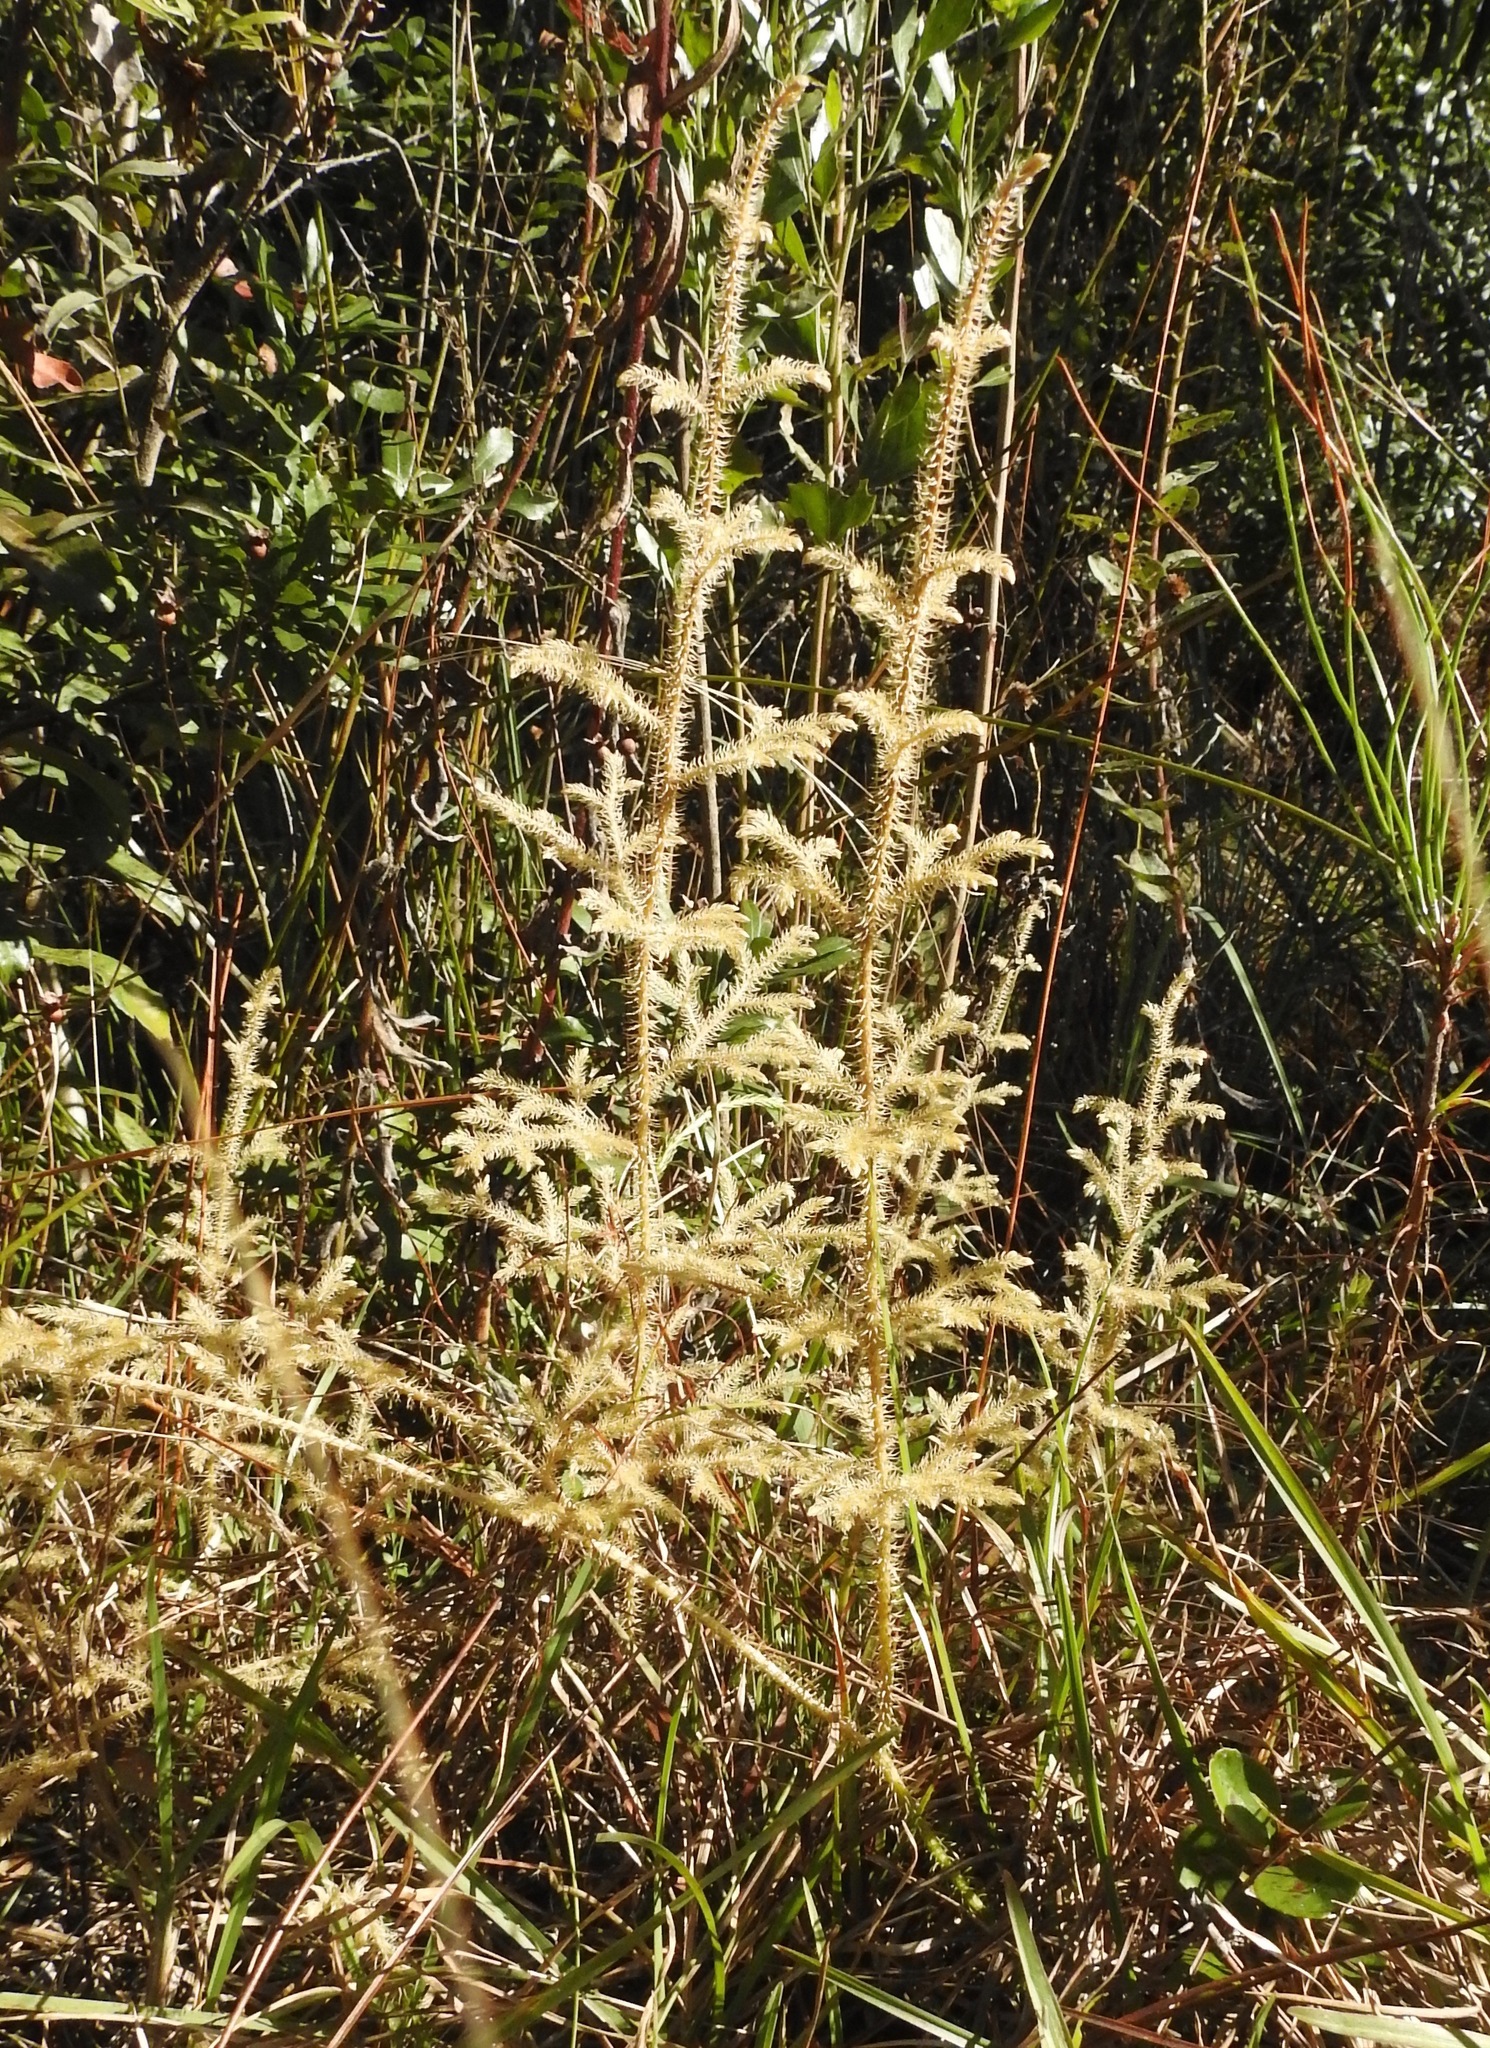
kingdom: Plantae
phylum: Tracheophyta
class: Lycopodiopsida
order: Lycopodiales
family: Lycopodiaceae
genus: Palhinhaea
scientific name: Palhinhaea cernua
